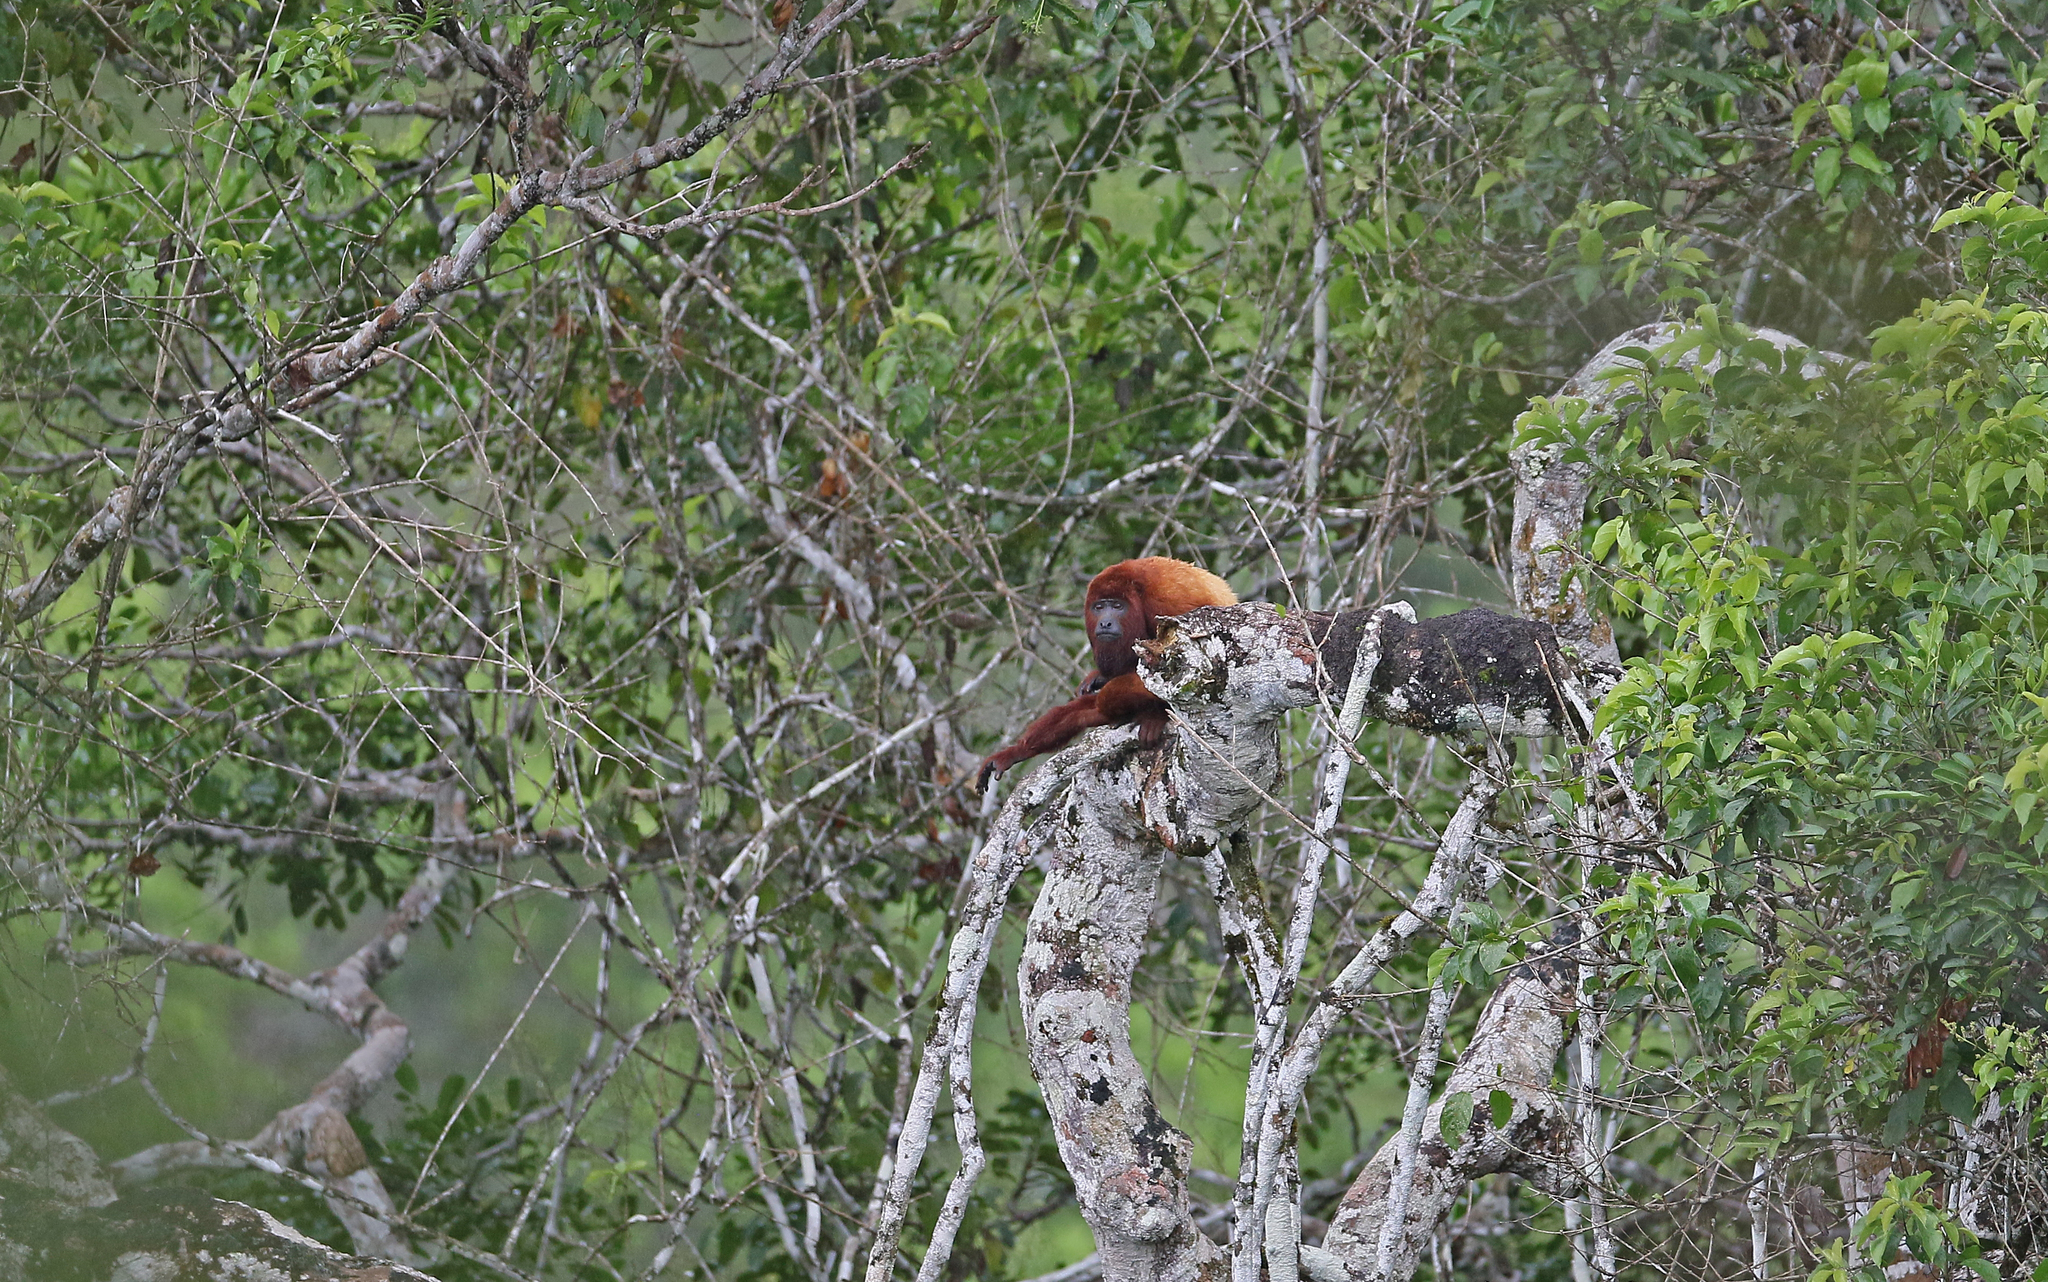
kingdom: Animalia
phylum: Chordata
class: Mammalia
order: Primates
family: Atelidae
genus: Alouatta
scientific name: Alouatta seniculus
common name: Venezuelan red howler
